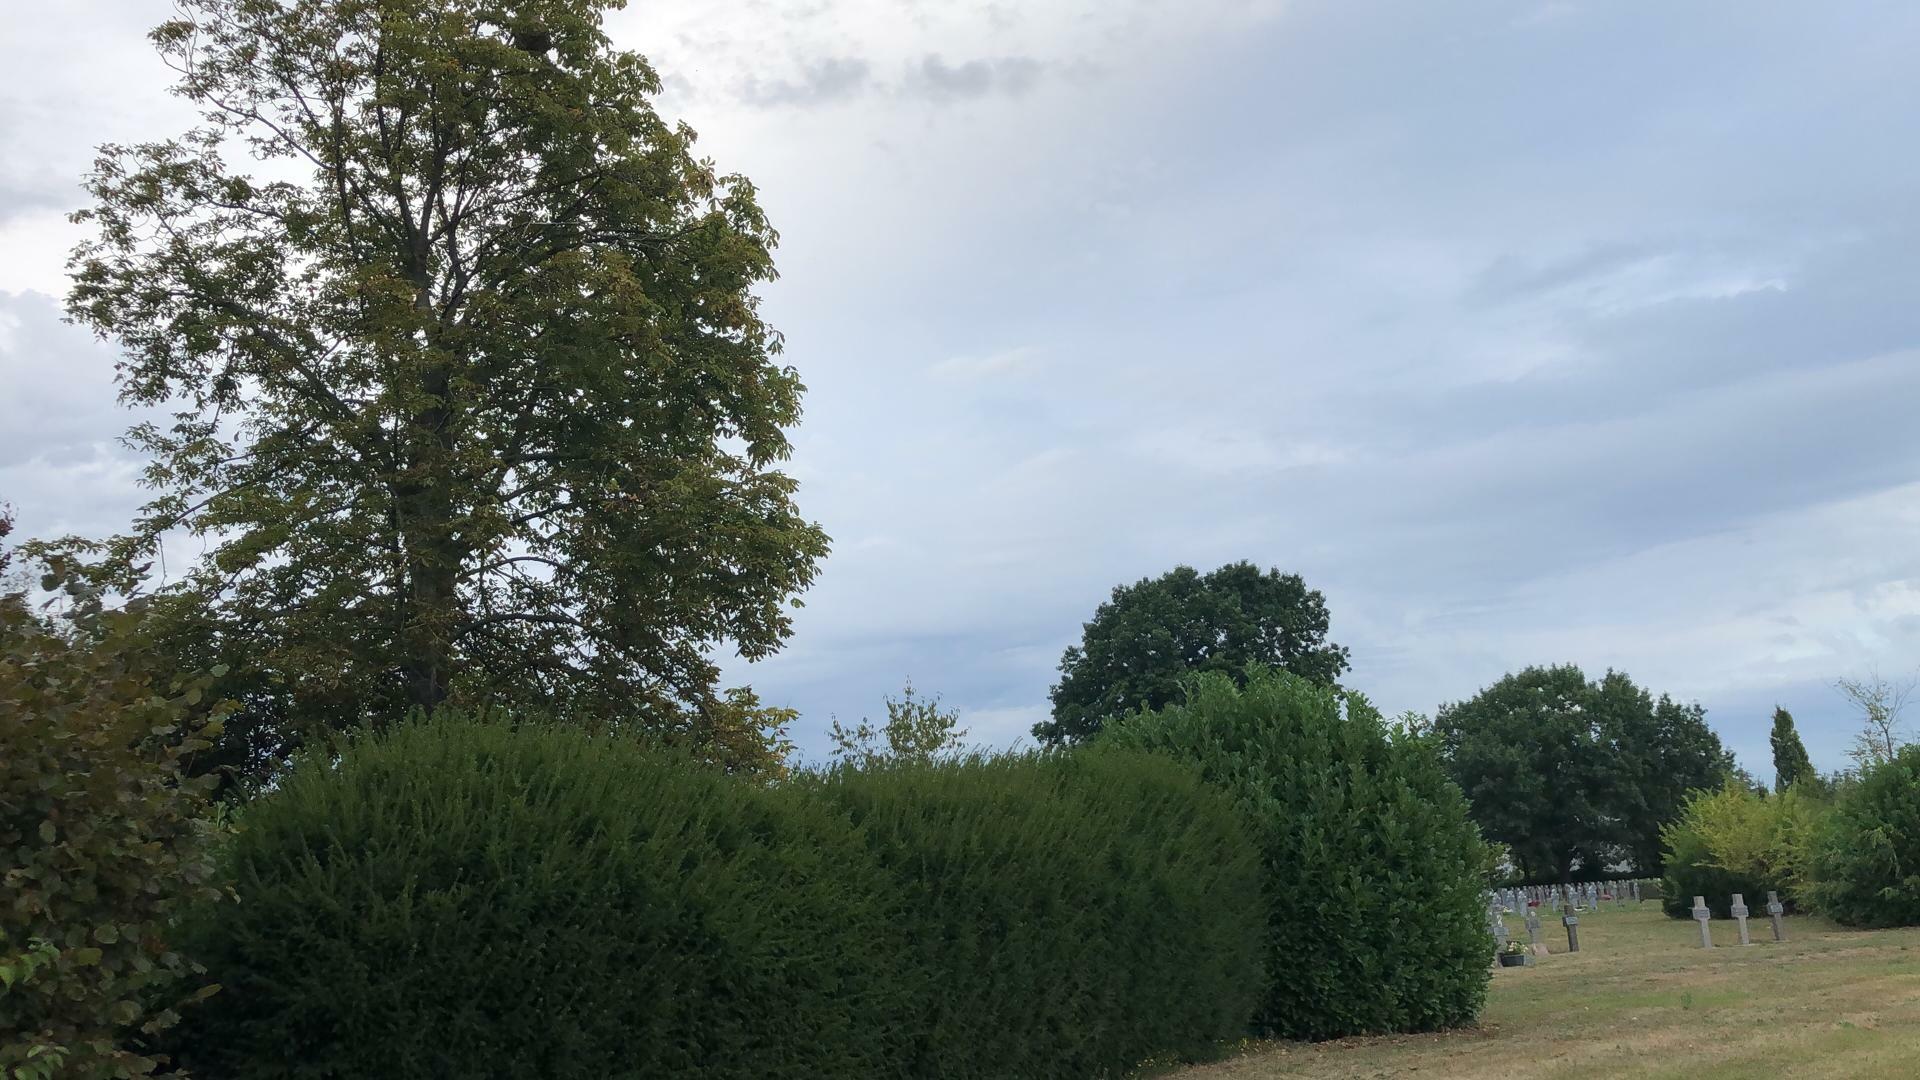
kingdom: Animalia
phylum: Arthropoda
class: Insecta
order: Hymenoptera
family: Vespidae
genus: Vespa
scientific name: Vespa velutina
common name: Asian hornet
